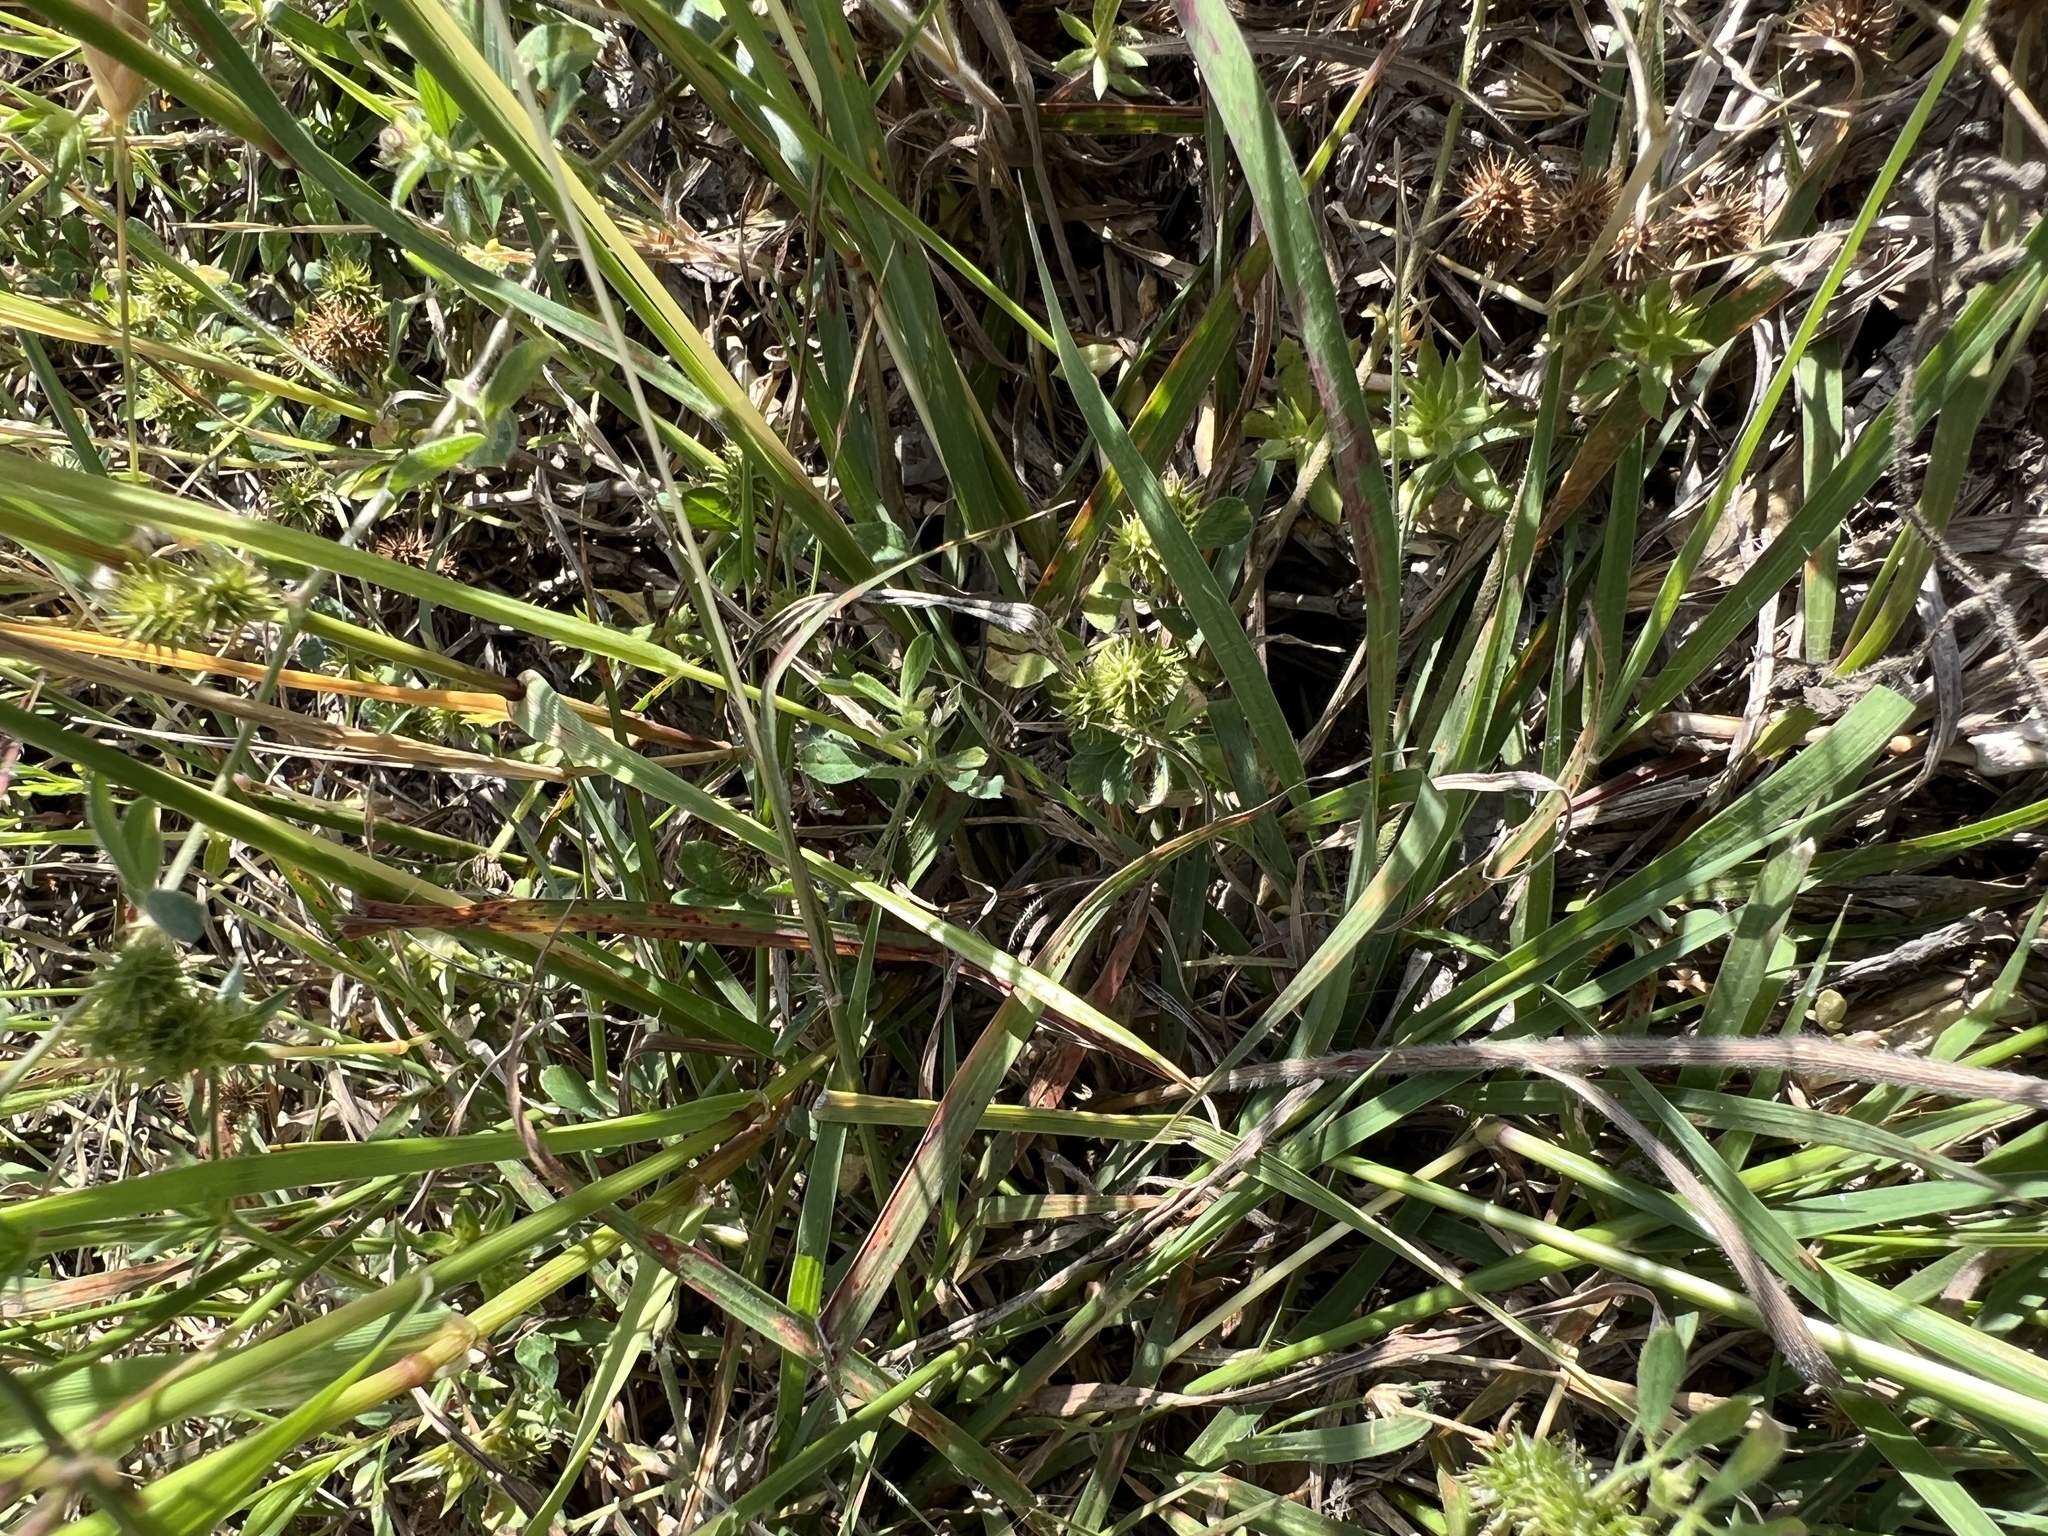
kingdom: Plantae
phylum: Tracheophyta
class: Liliopsida
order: Poales
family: Poaceae
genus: Bothriochloa
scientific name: Bothriochloa ischaemum
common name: Yellow bluestem
